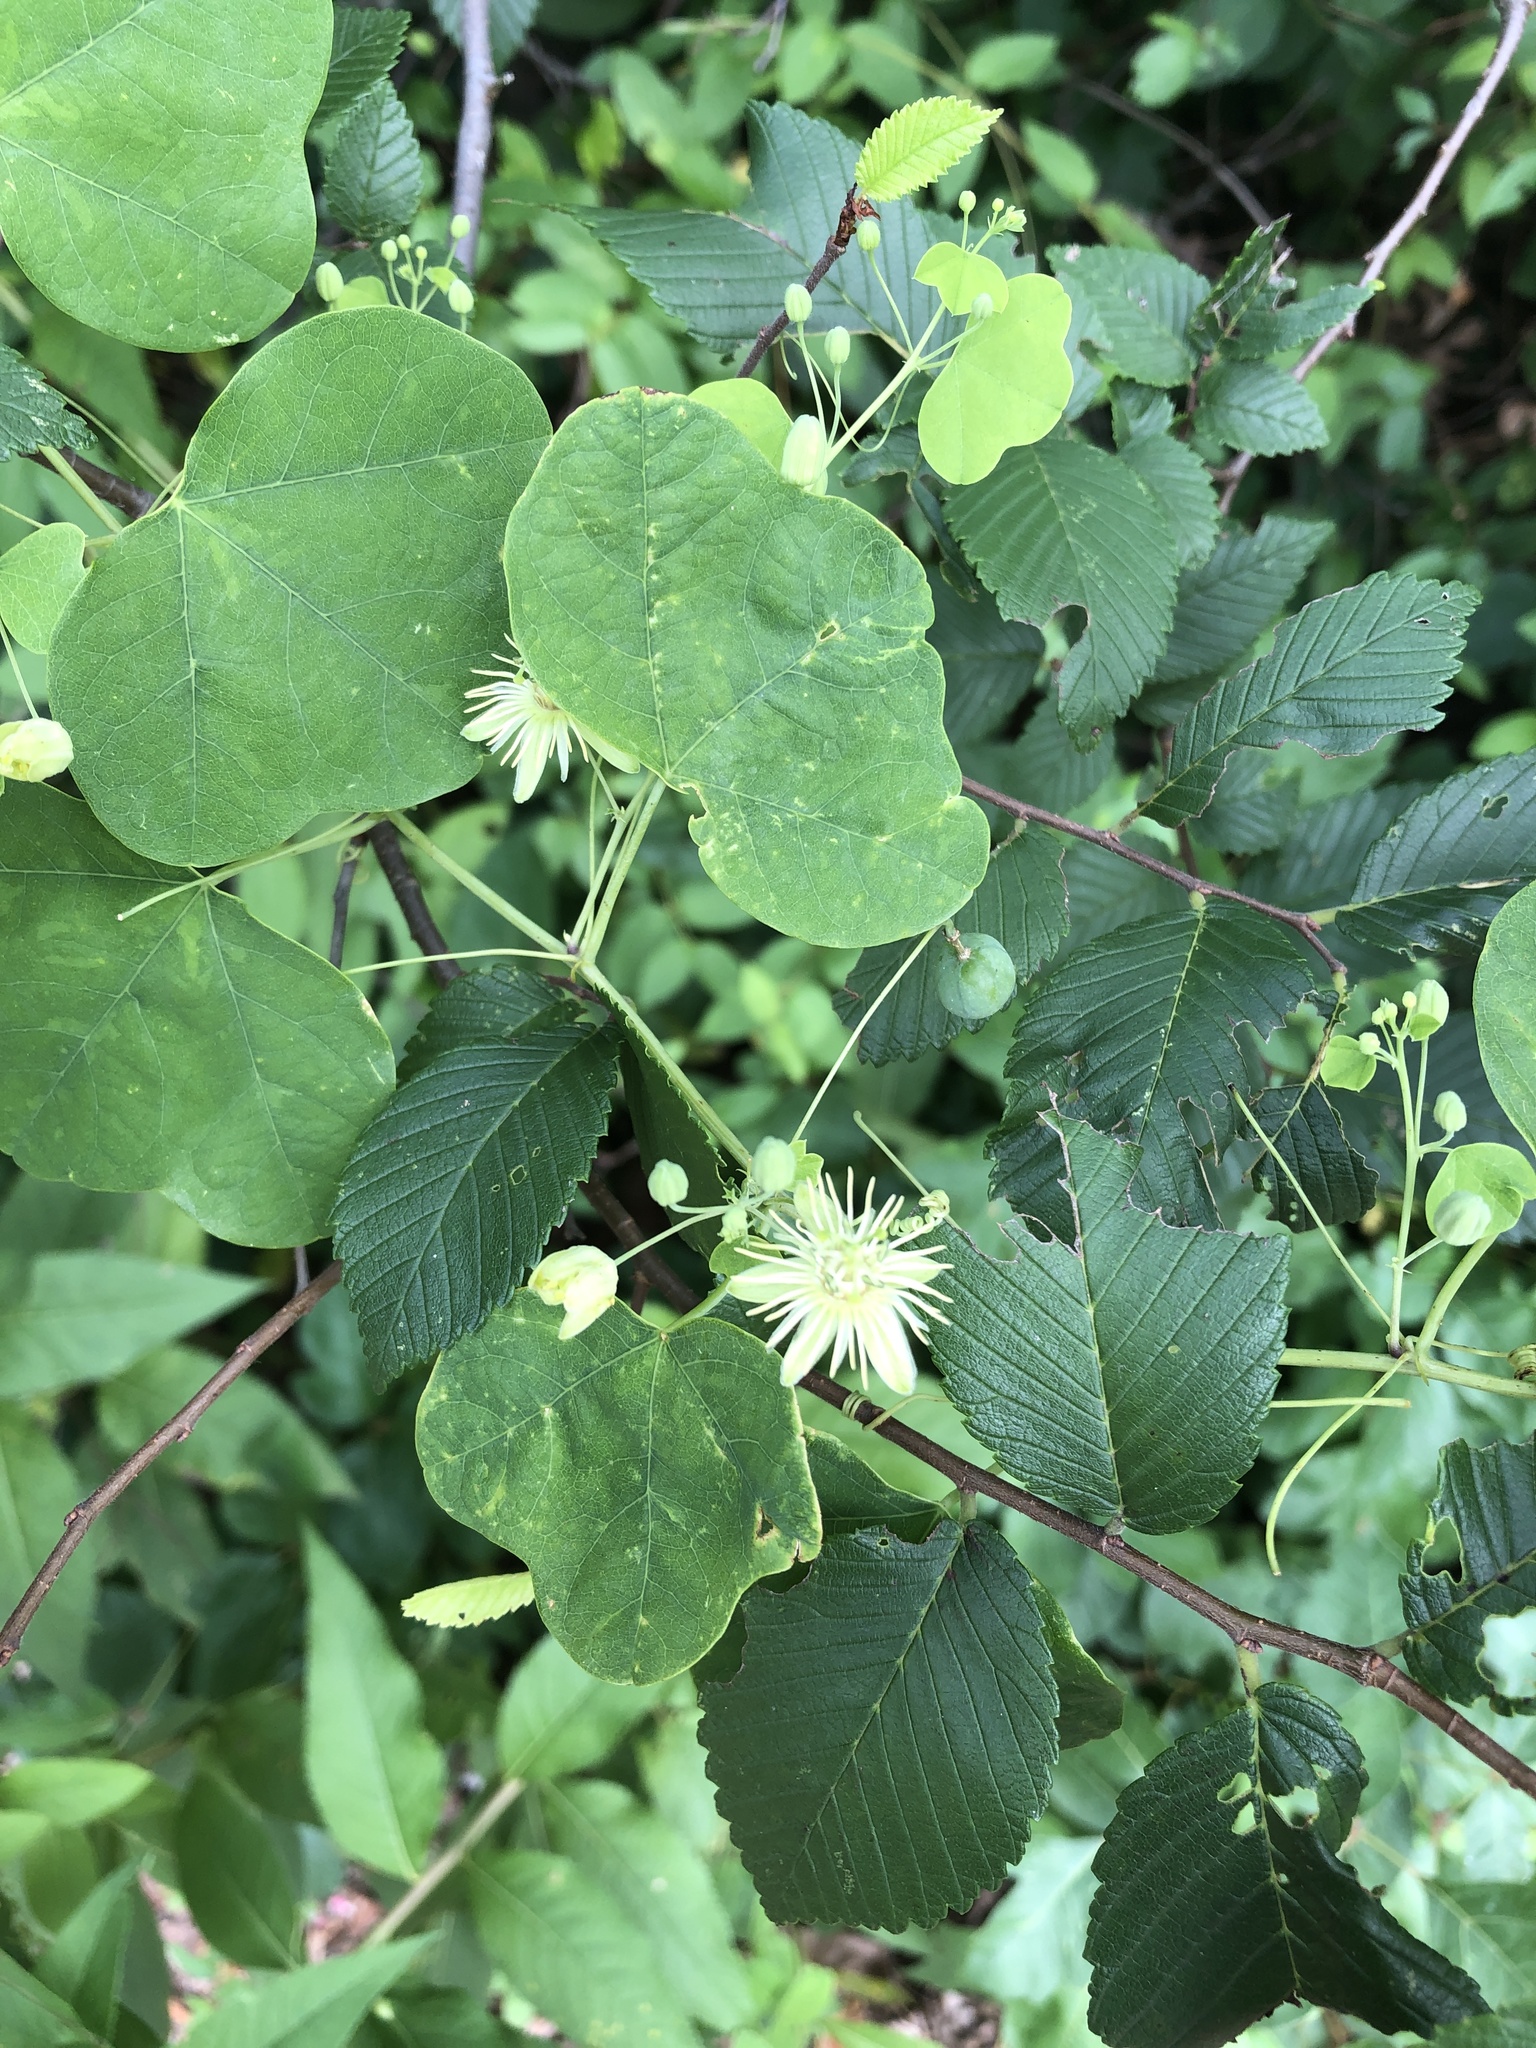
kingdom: Plantae
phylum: Tracheophyta
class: Magnoliopsida
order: Malpighiales
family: Passifloraceae
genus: Passiflora
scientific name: Passiflora lutea
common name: Yellow passionflower
